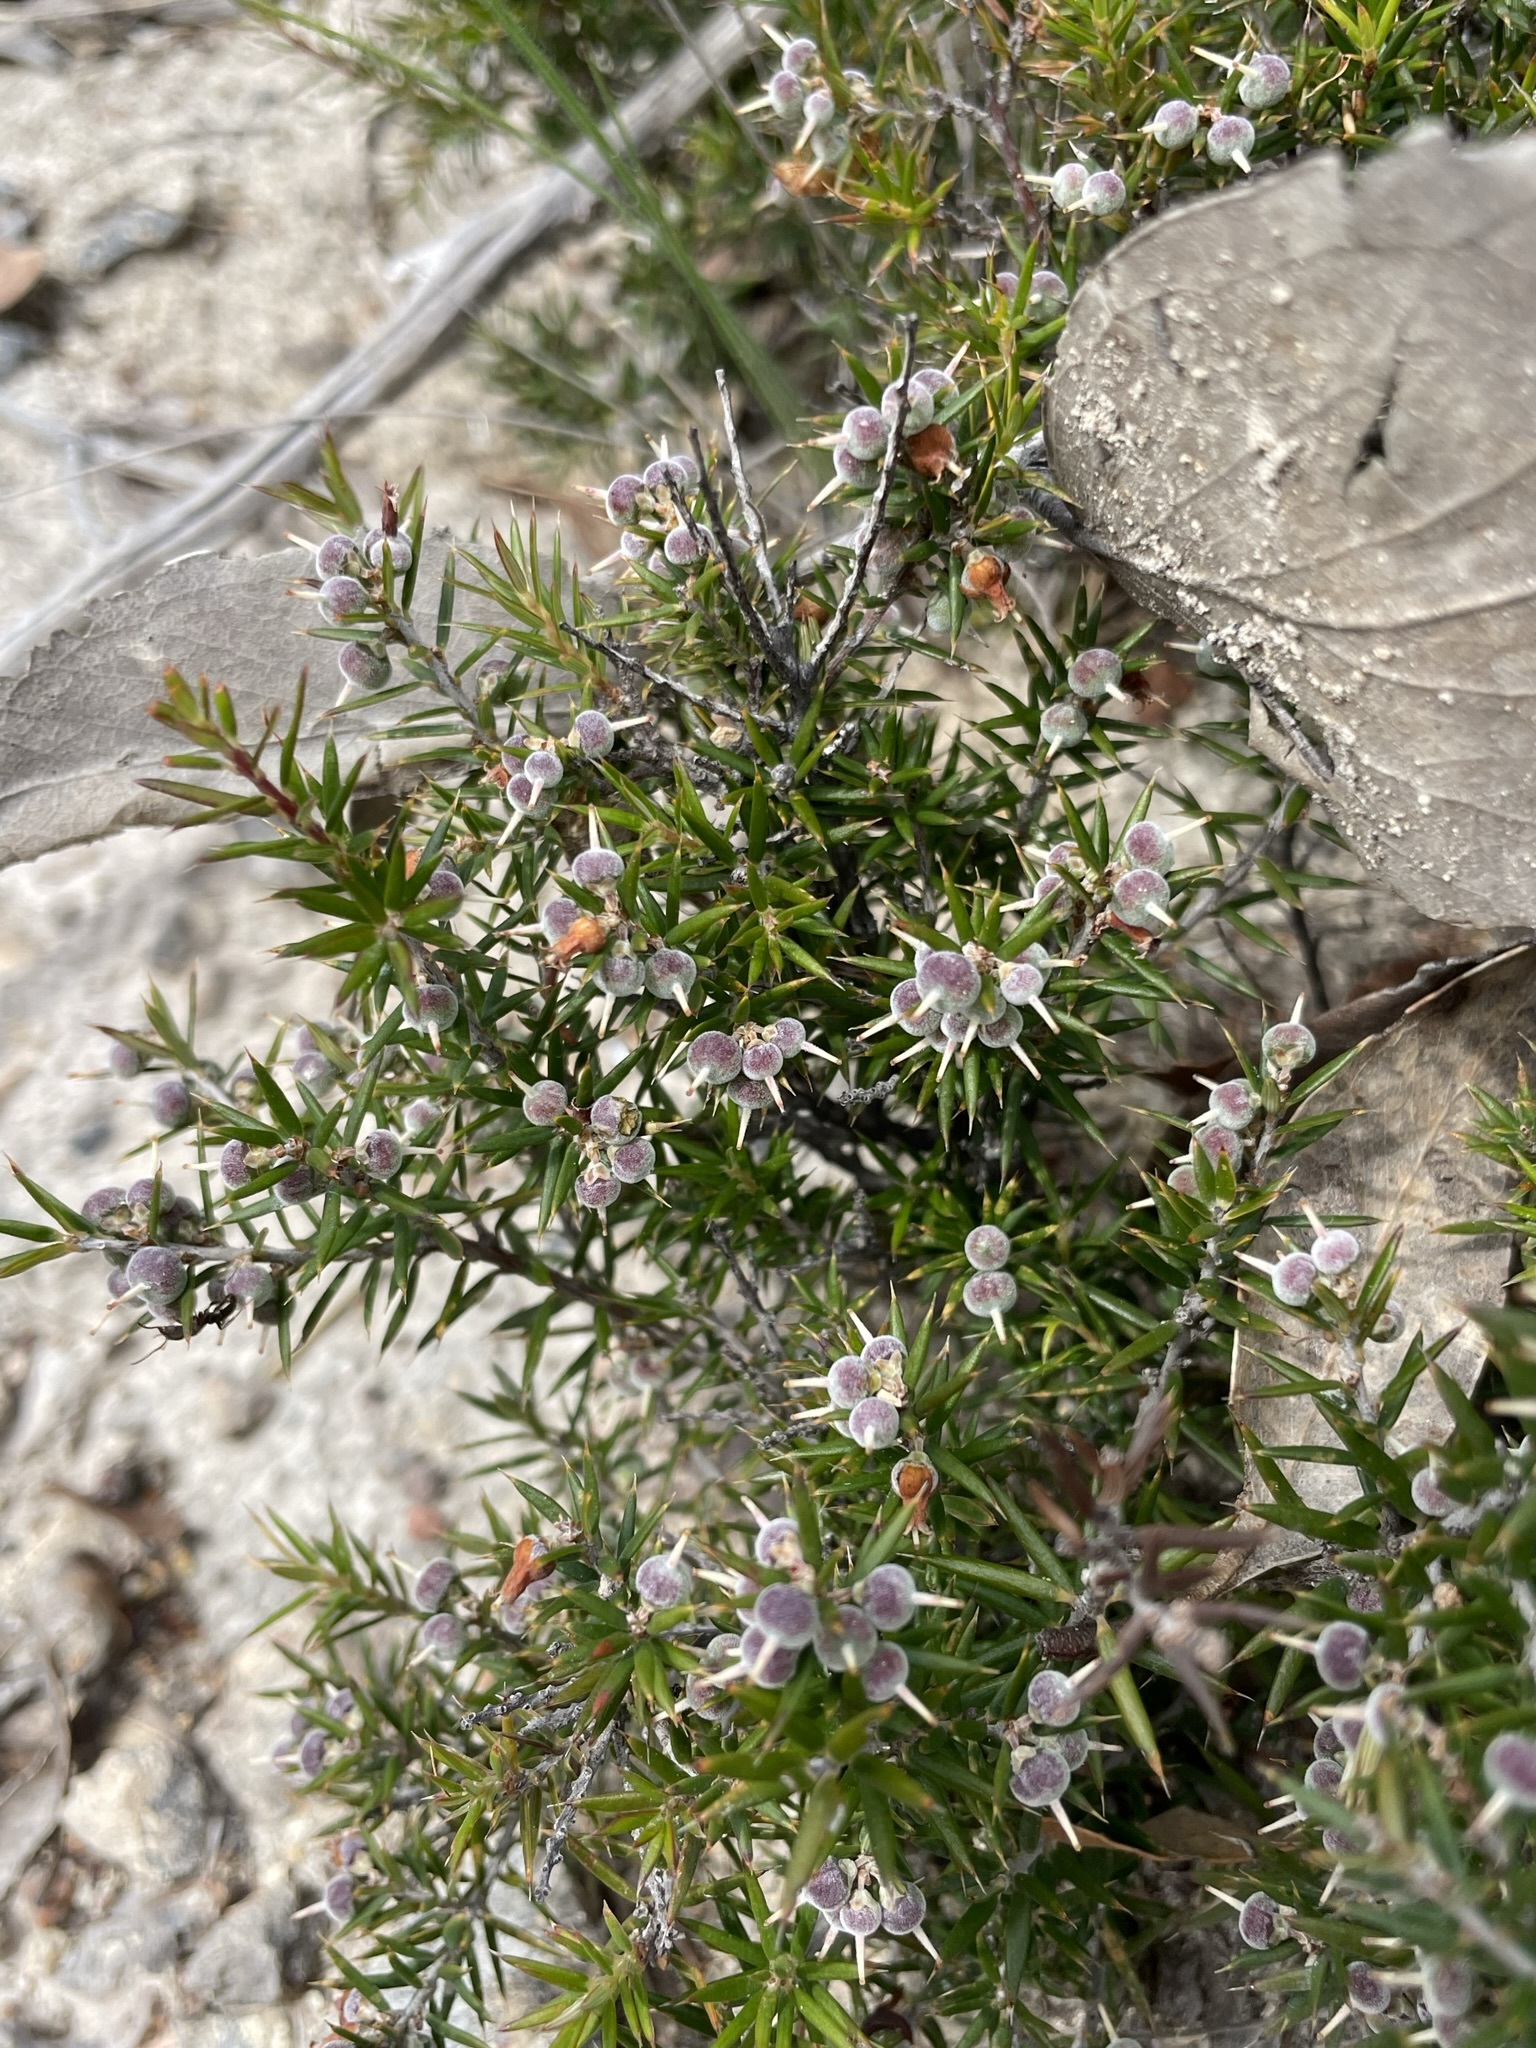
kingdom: Plantae
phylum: Tracheophyta
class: Magnoliopsida
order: Ericales
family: Ericaceae
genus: Lissanthe
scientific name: Lissanthe strigosa
